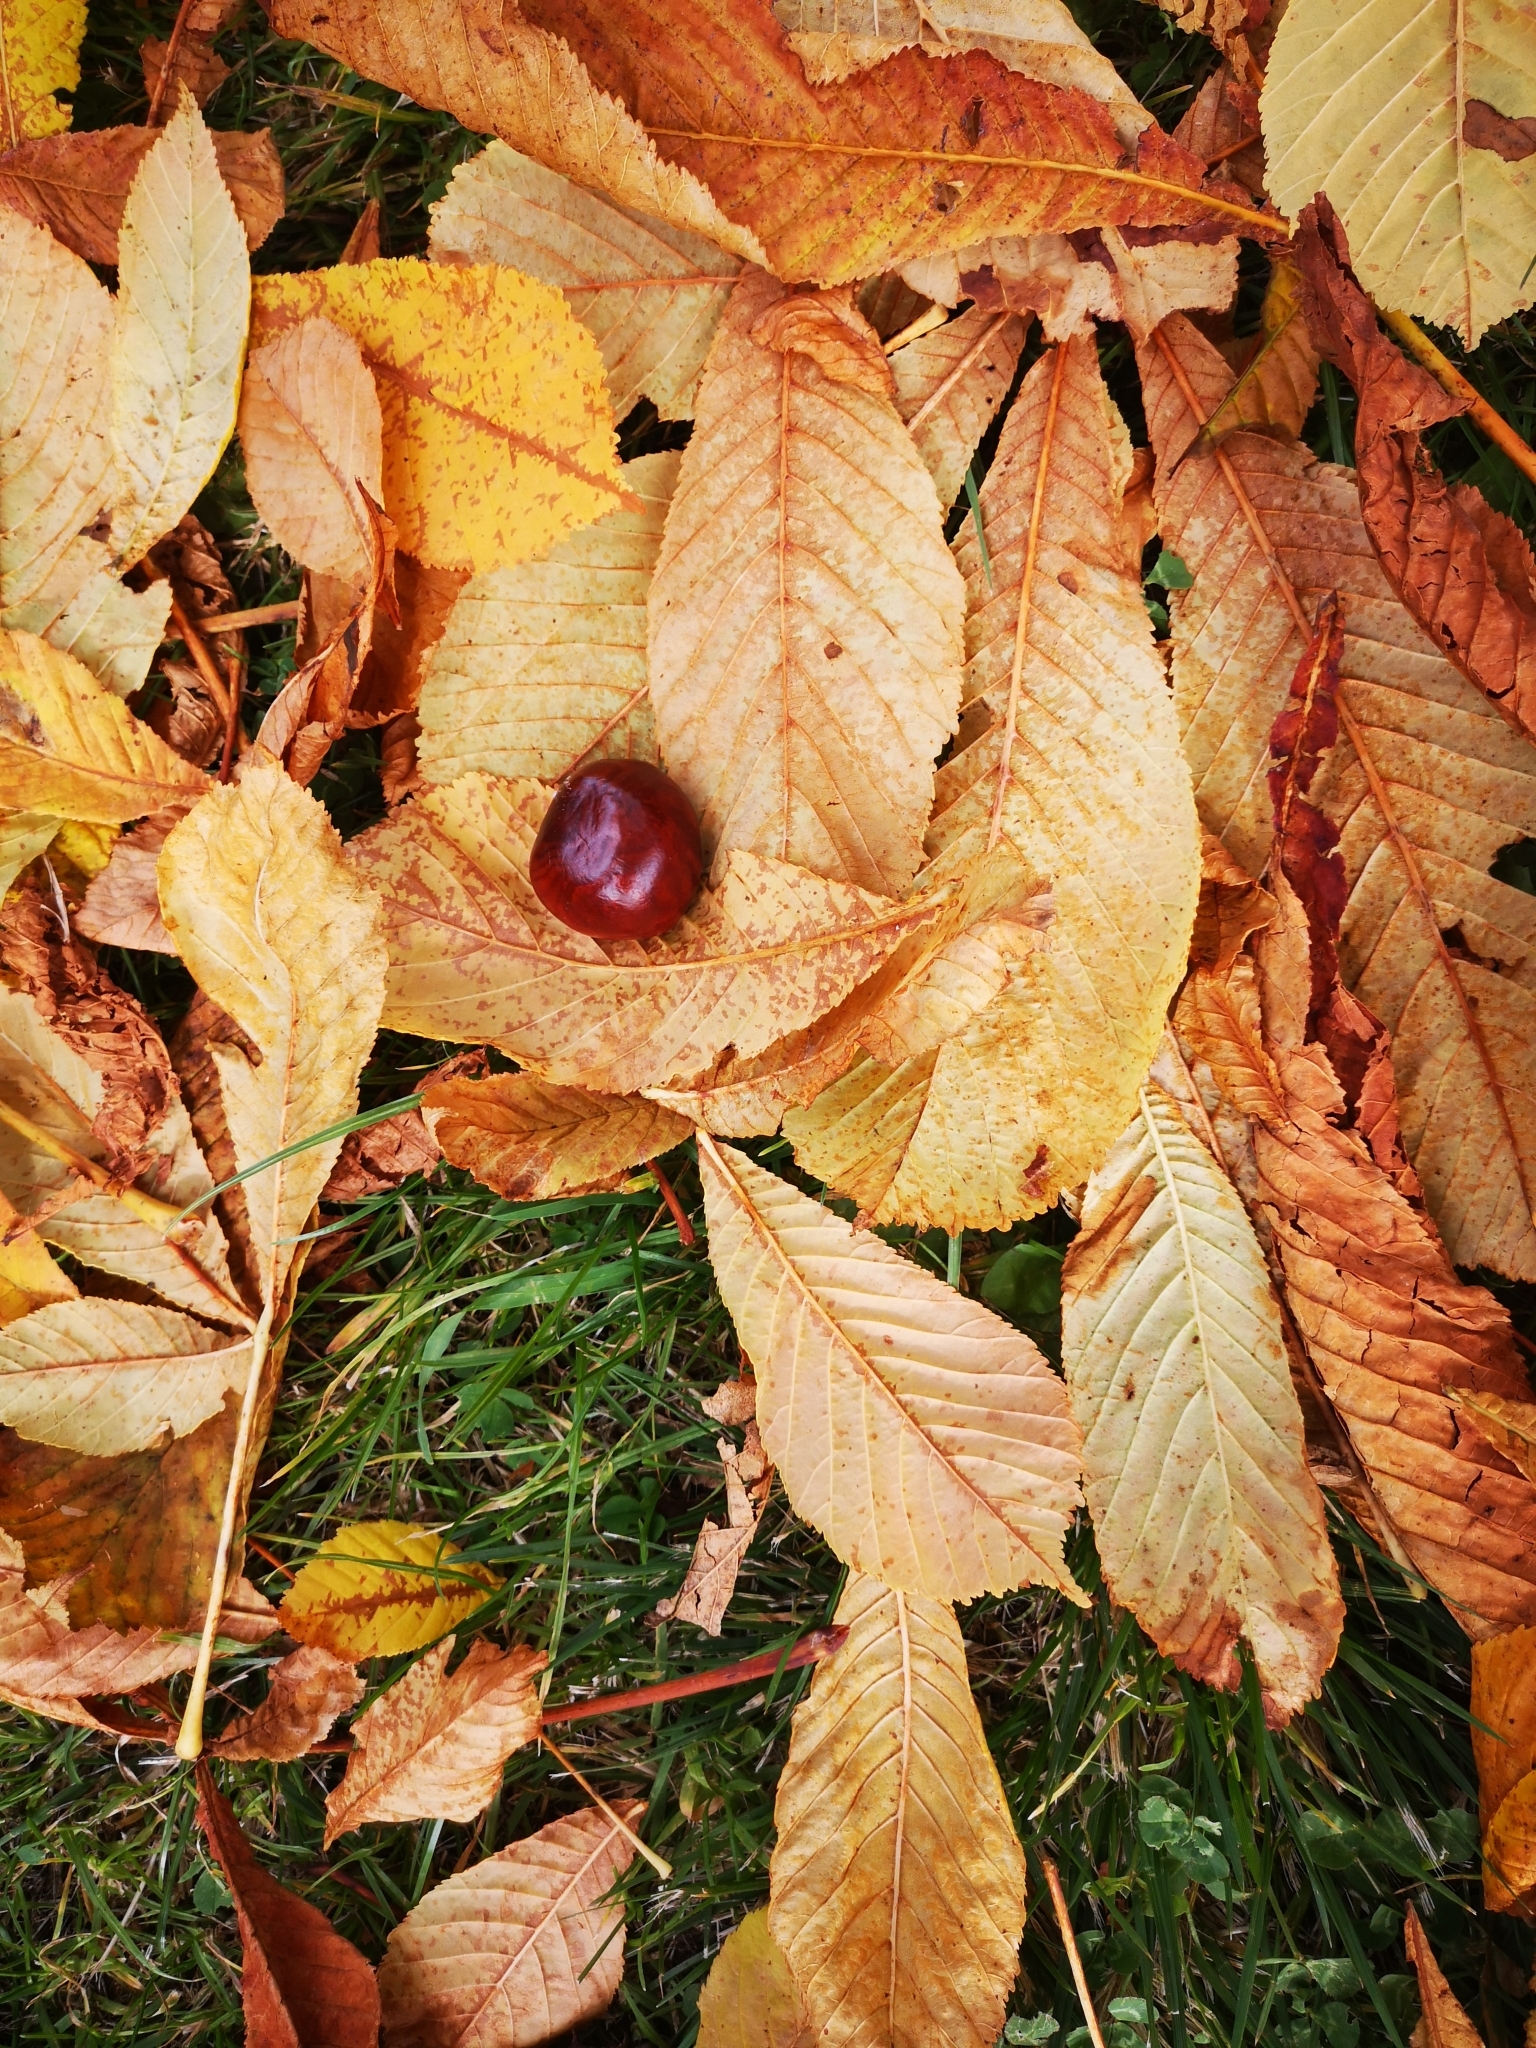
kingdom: Plantae
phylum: Tracheophyta
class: Magnoliopsida
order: Sapindales
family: Sapindaceae
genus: Aesculus
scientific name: Aesculus hippocastanum
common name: Horse-chestnut
